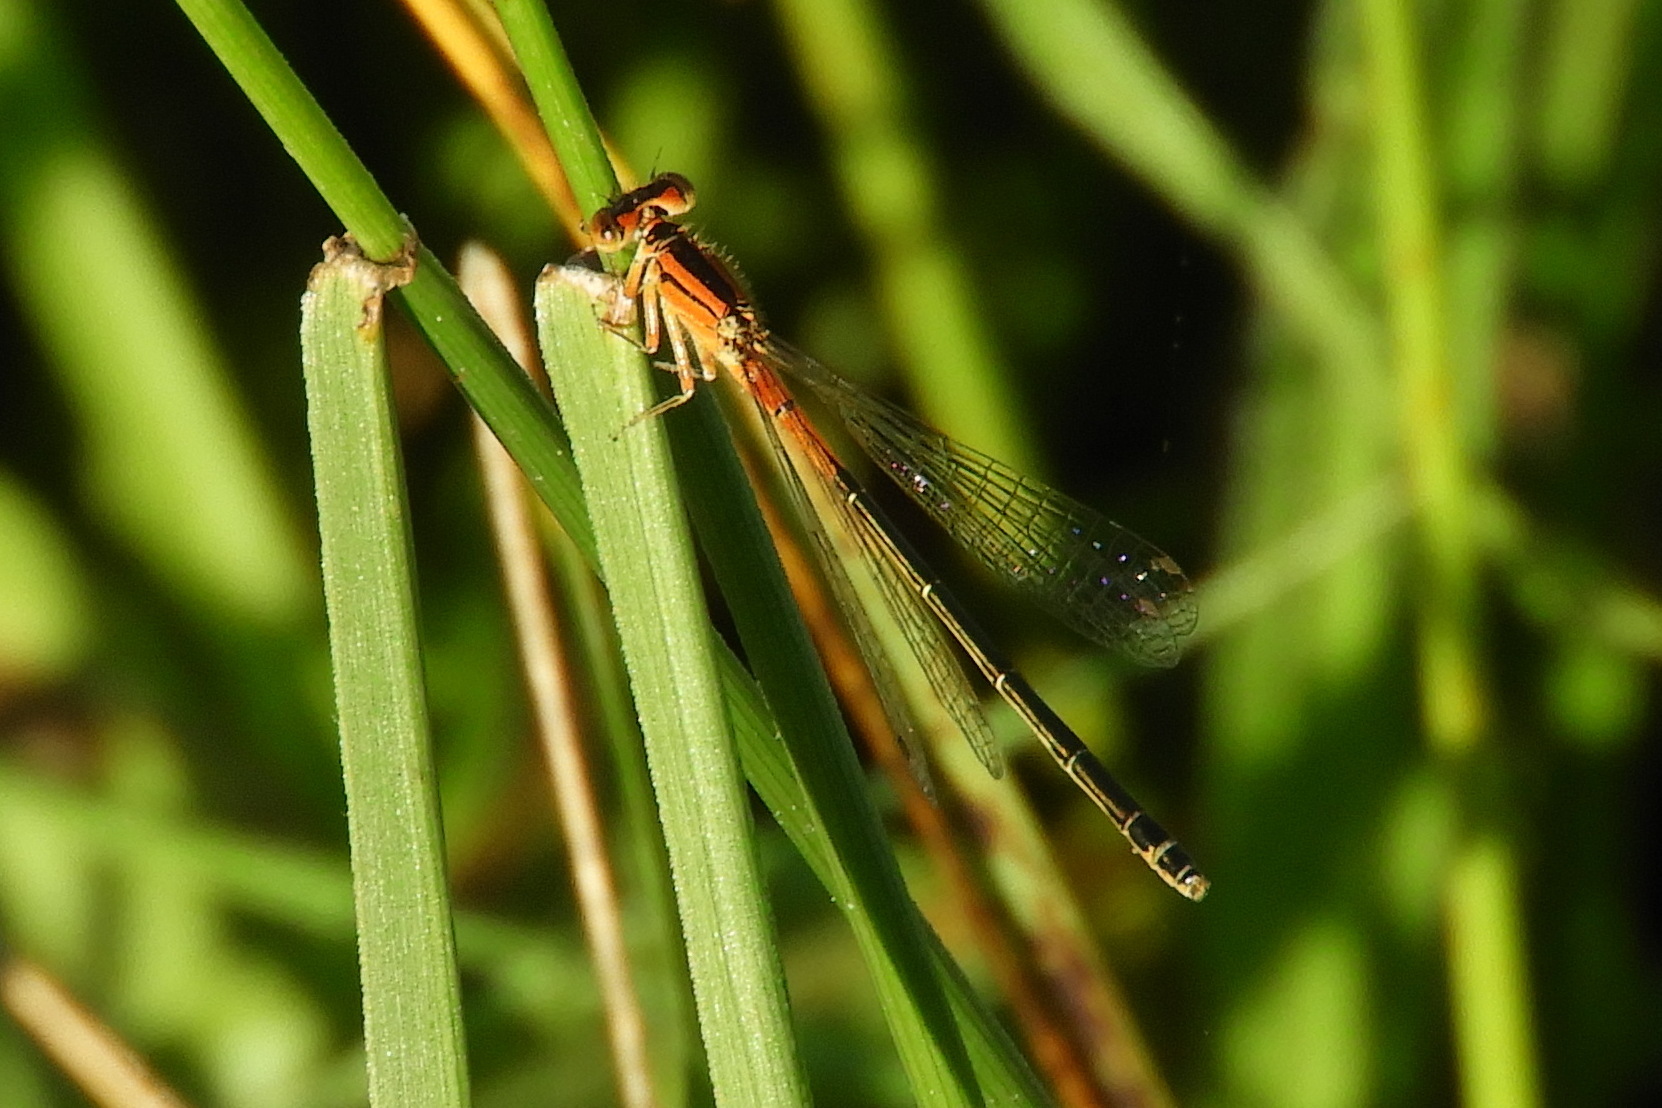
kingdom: Animalia
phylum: Arthropoda
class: Insecta
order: Odonata
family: Coenagrionidae
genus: Ischnura
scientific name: Ischnura verticalis
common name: Eastern forktail
